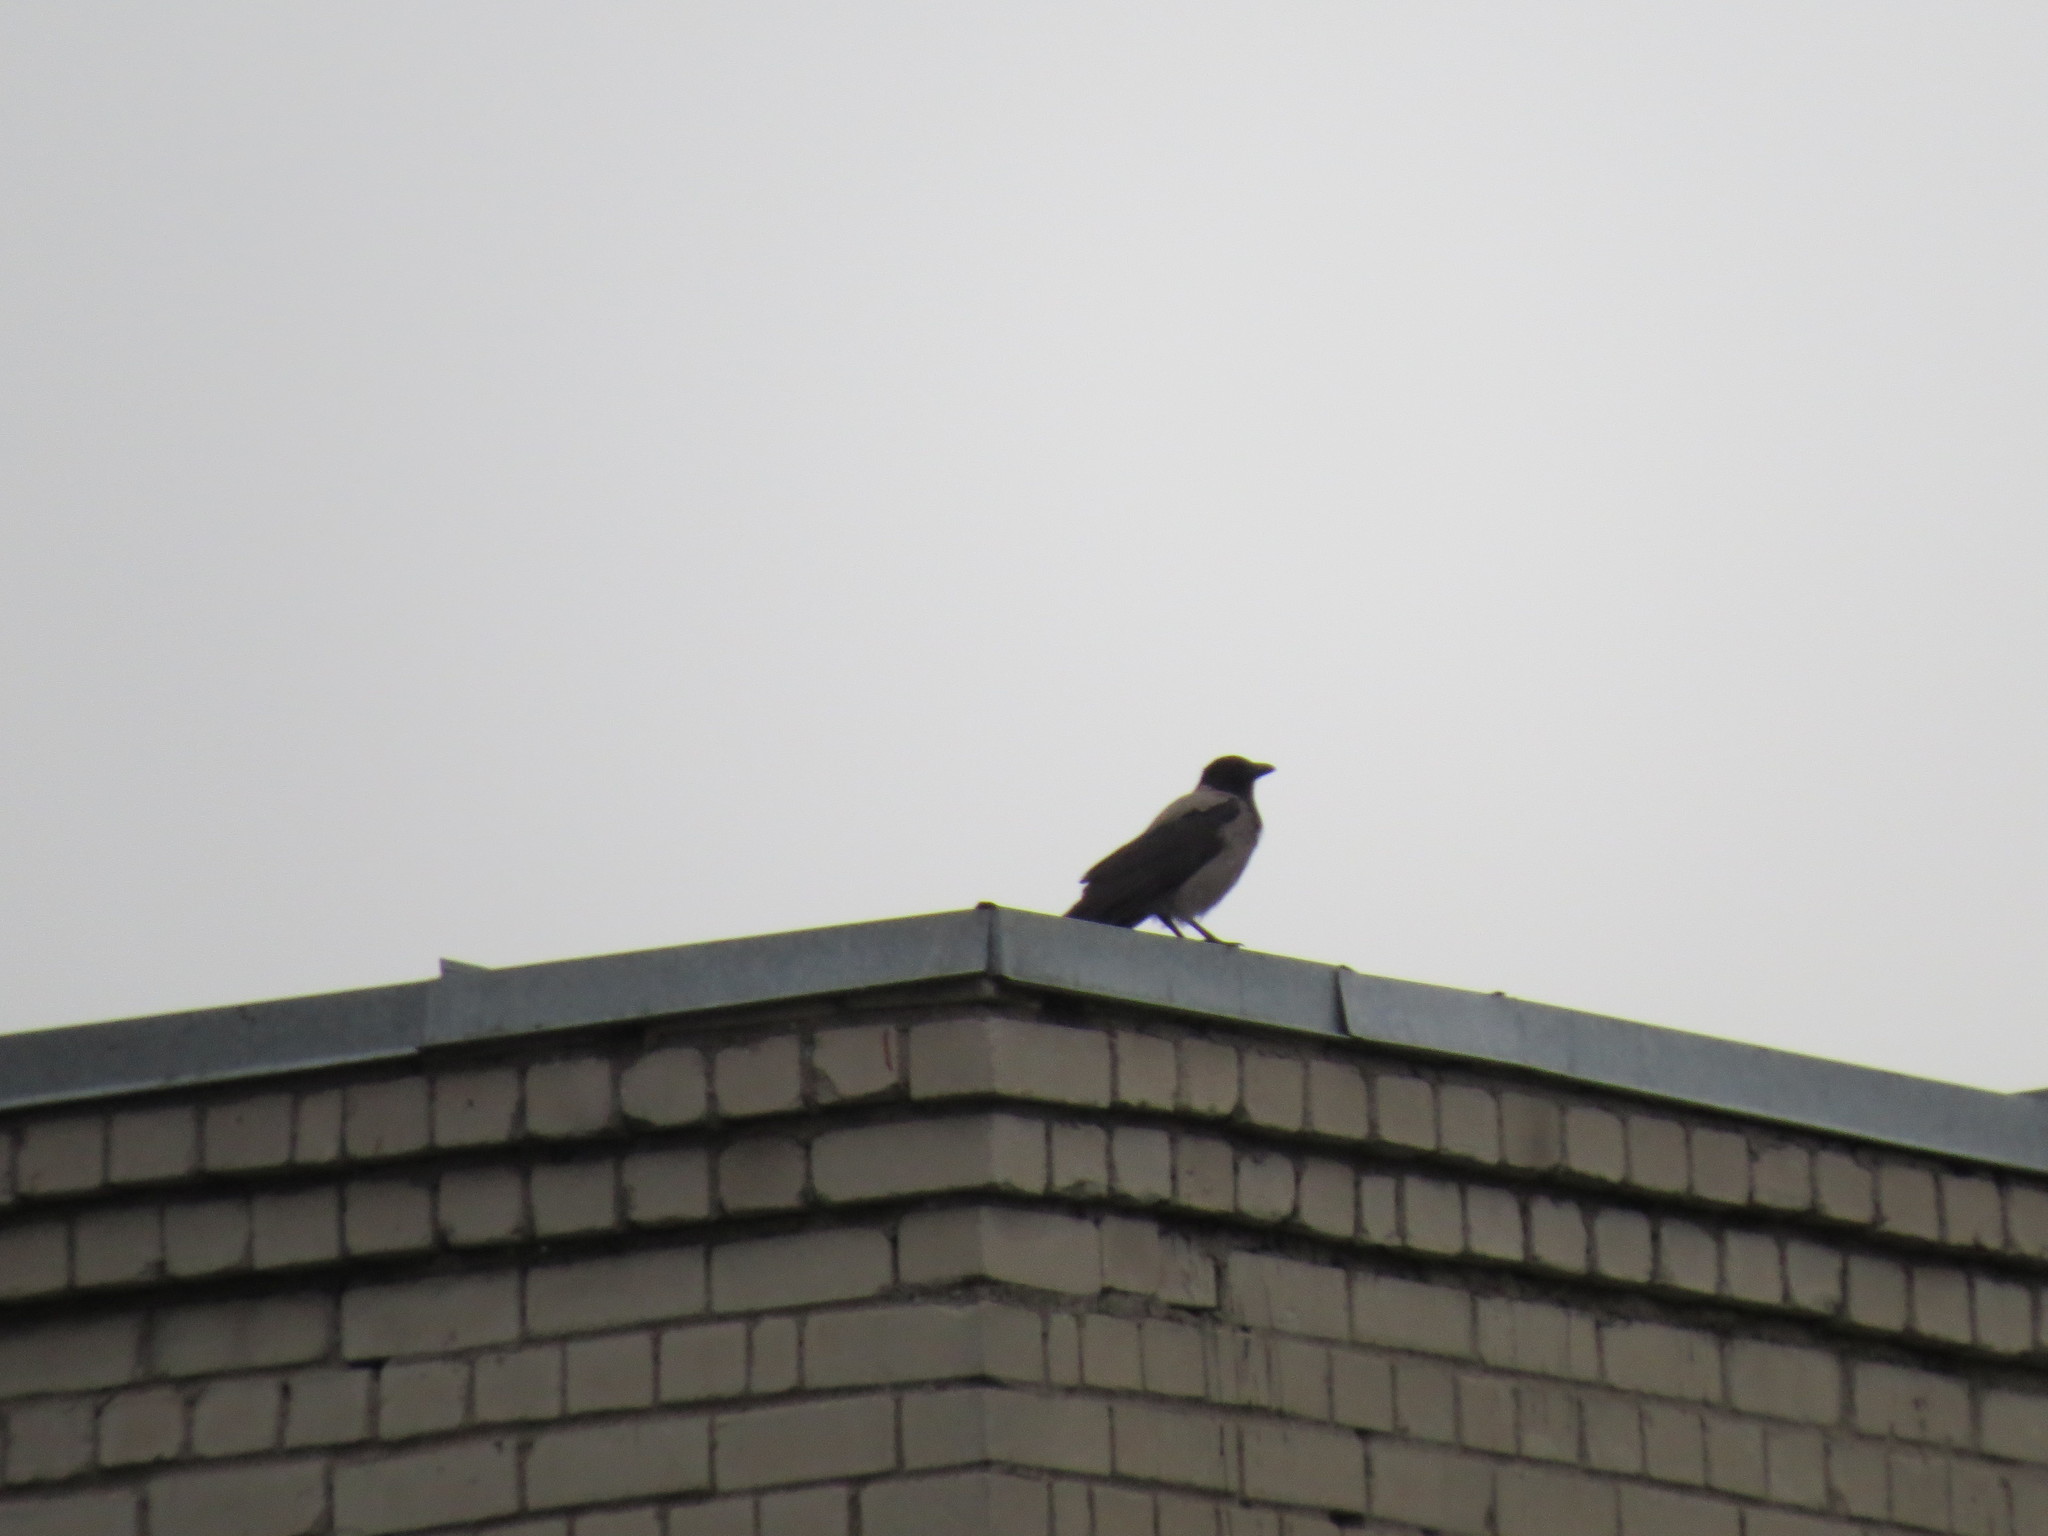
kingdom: Animalia
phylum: Chordata
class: Aves
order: Passeriformes
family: Corvidae
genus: Corvus
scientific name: Corvus cornix
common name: Hooded crow
